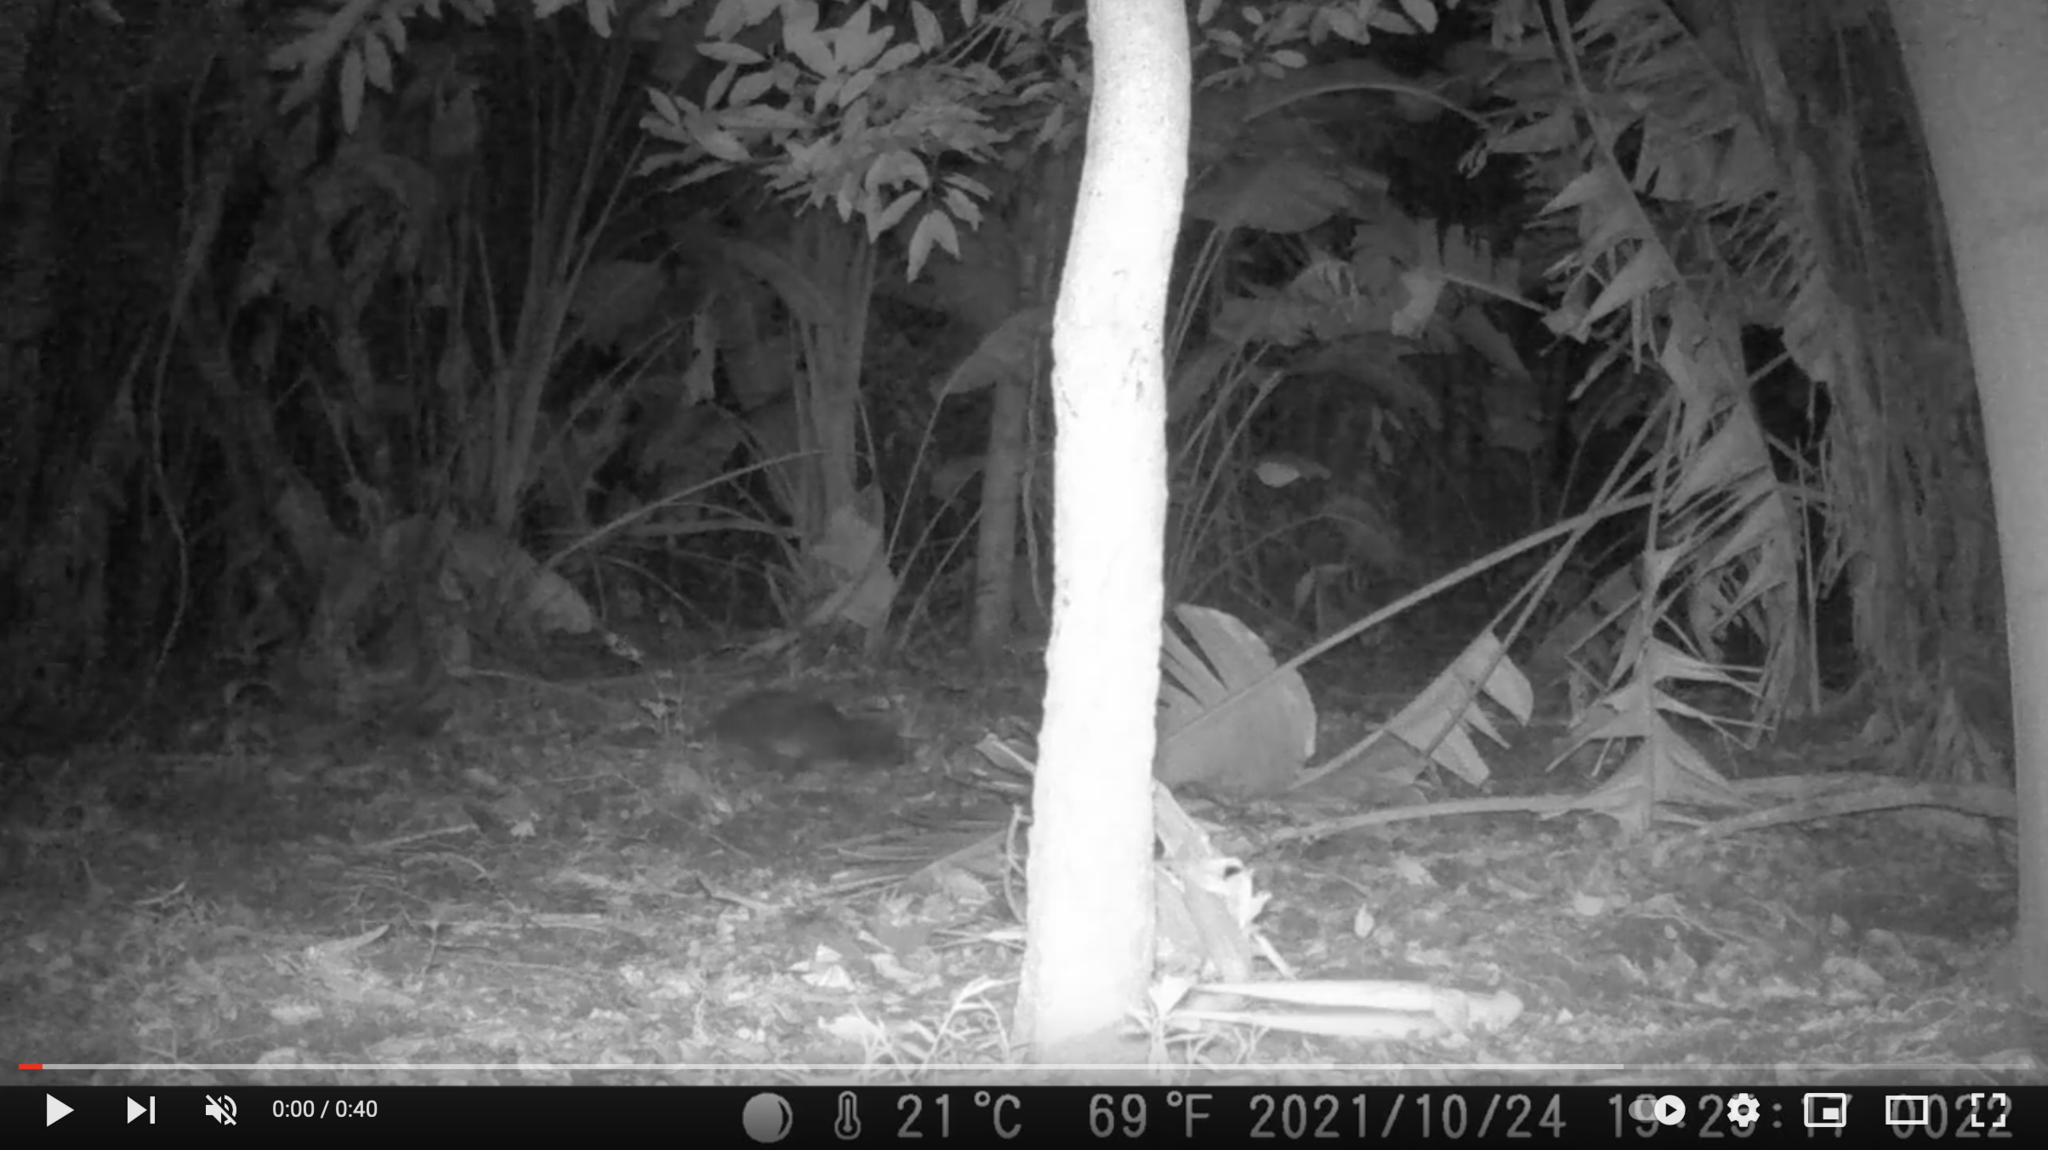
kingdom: Animalia
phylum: Chordata
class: Mammalia
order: Hyracoidea
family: Procaviidae
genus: Procavia
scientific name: Procavia capensis
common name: Rock hyrax
